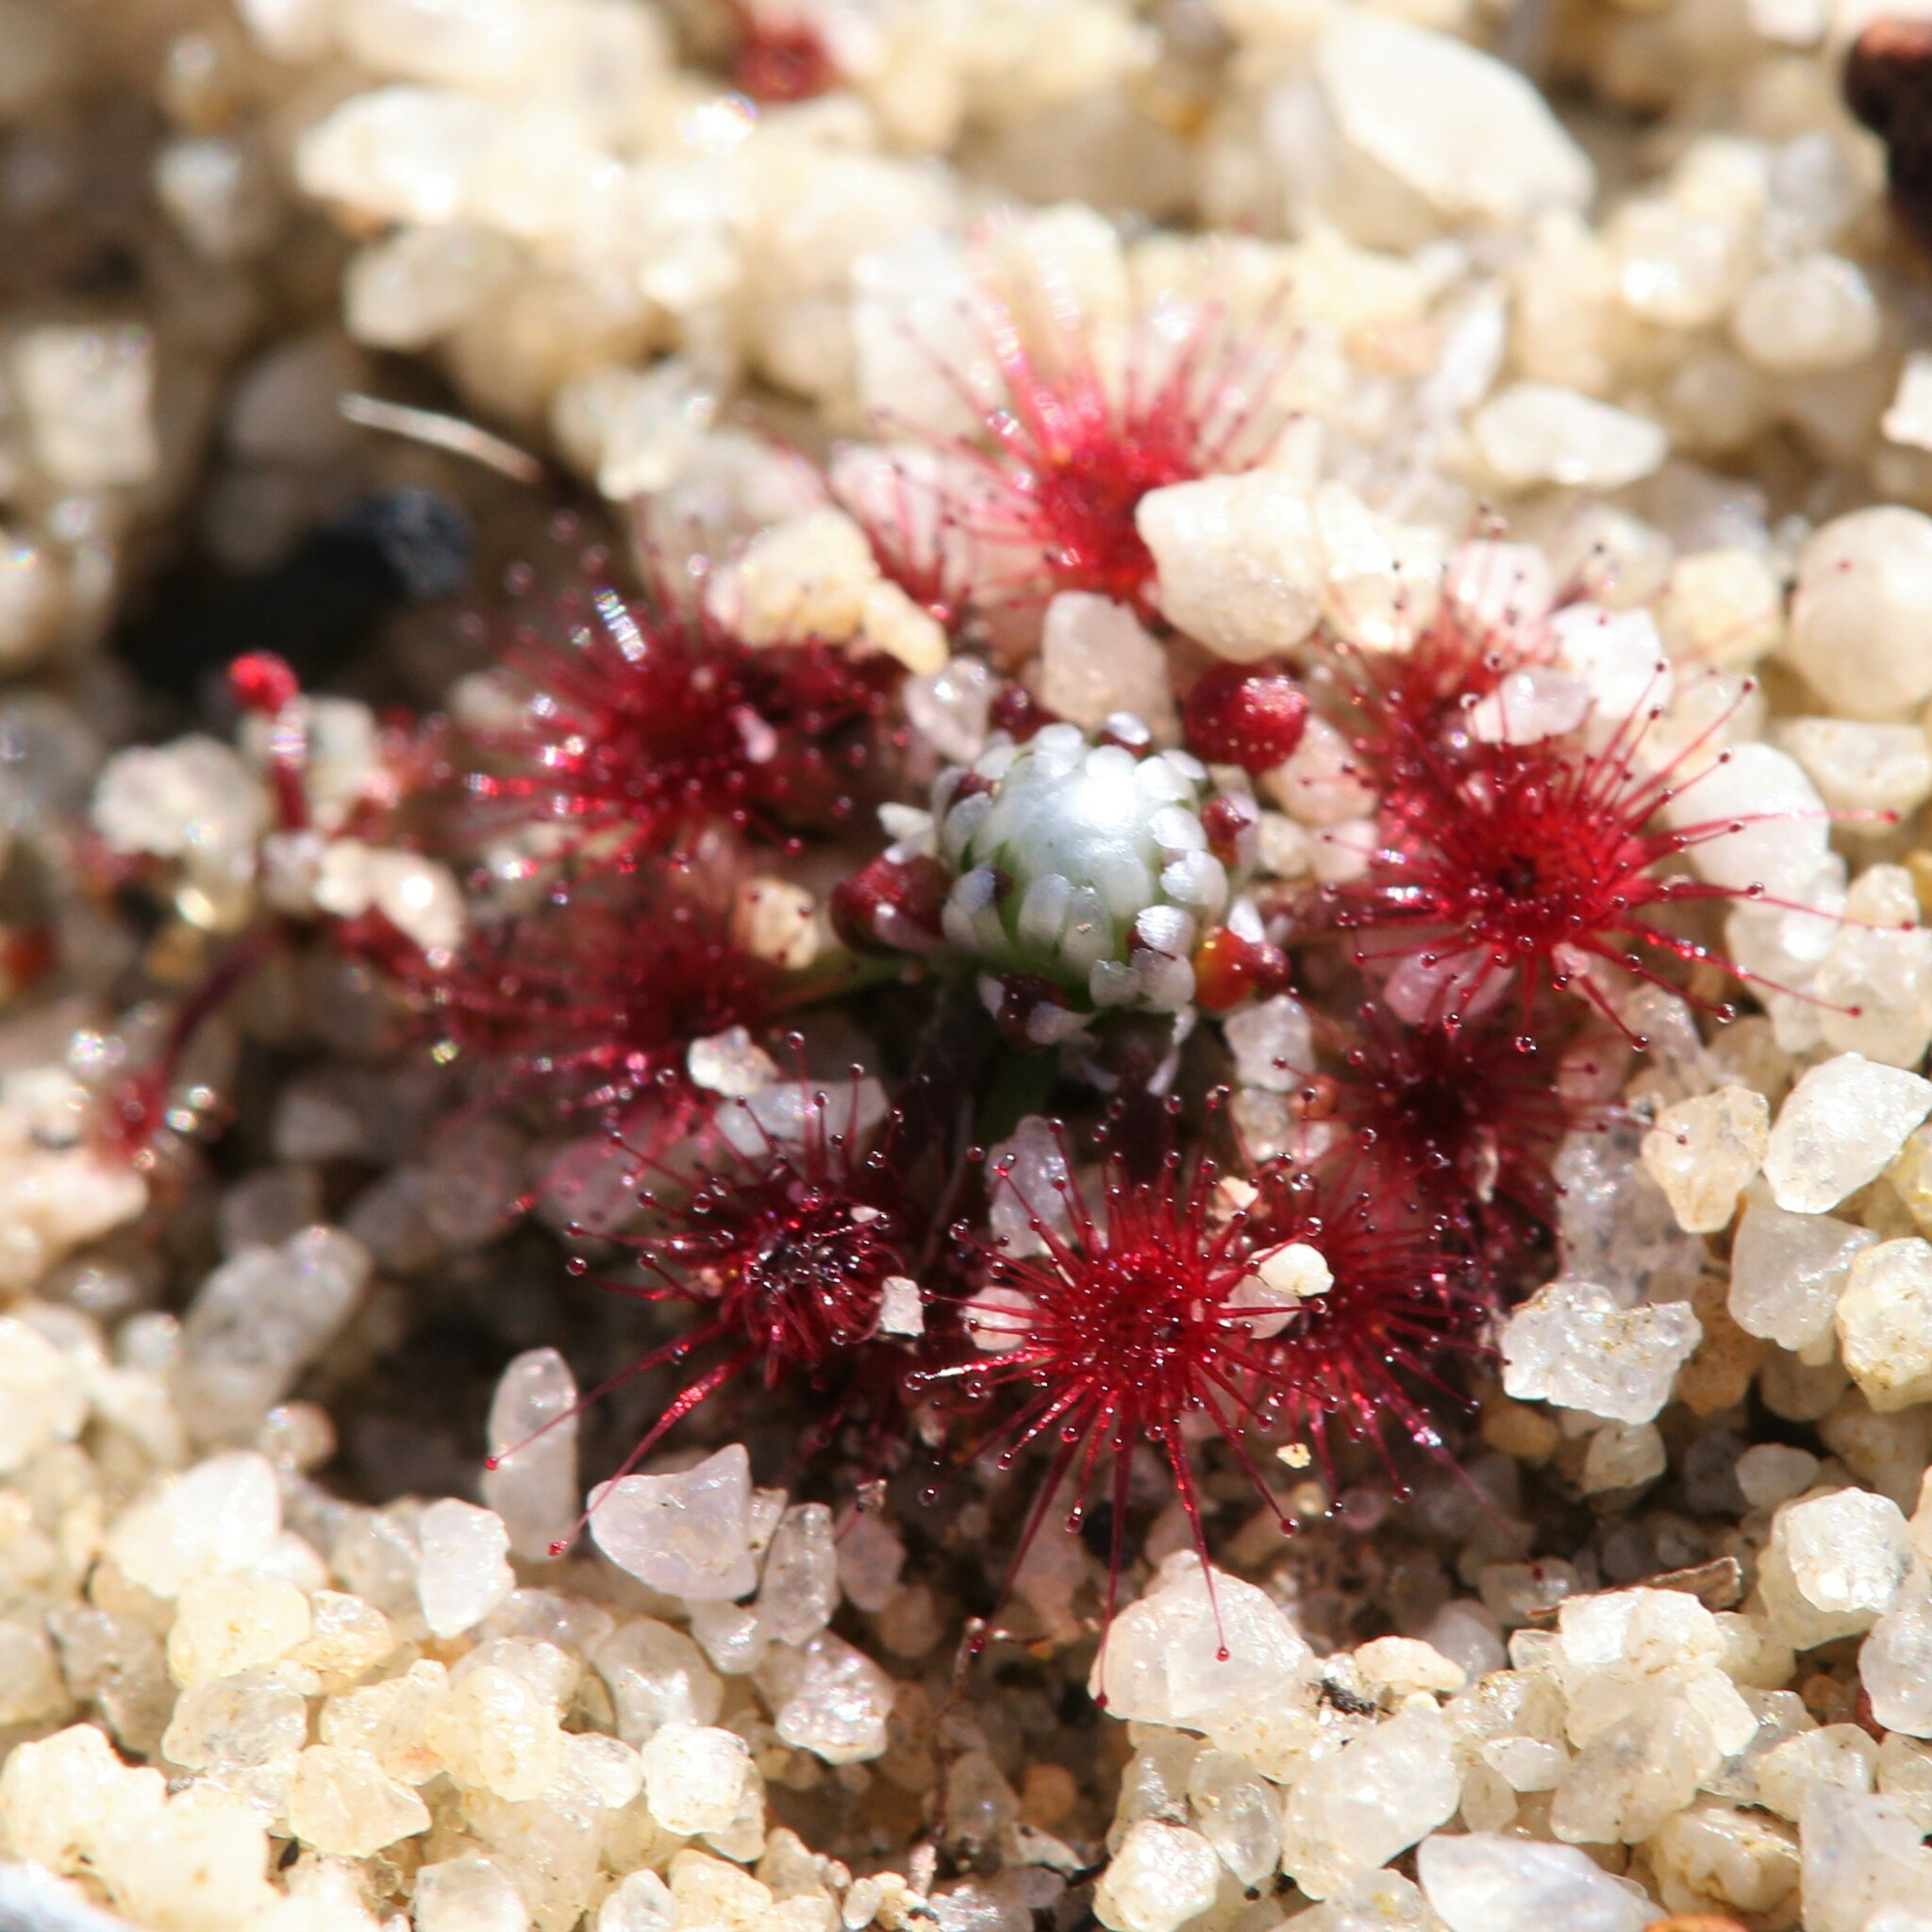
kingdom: Plantae
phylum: Tracheophyta
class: Magnoliopsida
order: Caryophyllales
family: Droseraceae
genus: Drosera
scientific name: Drosera pycnoblasta
